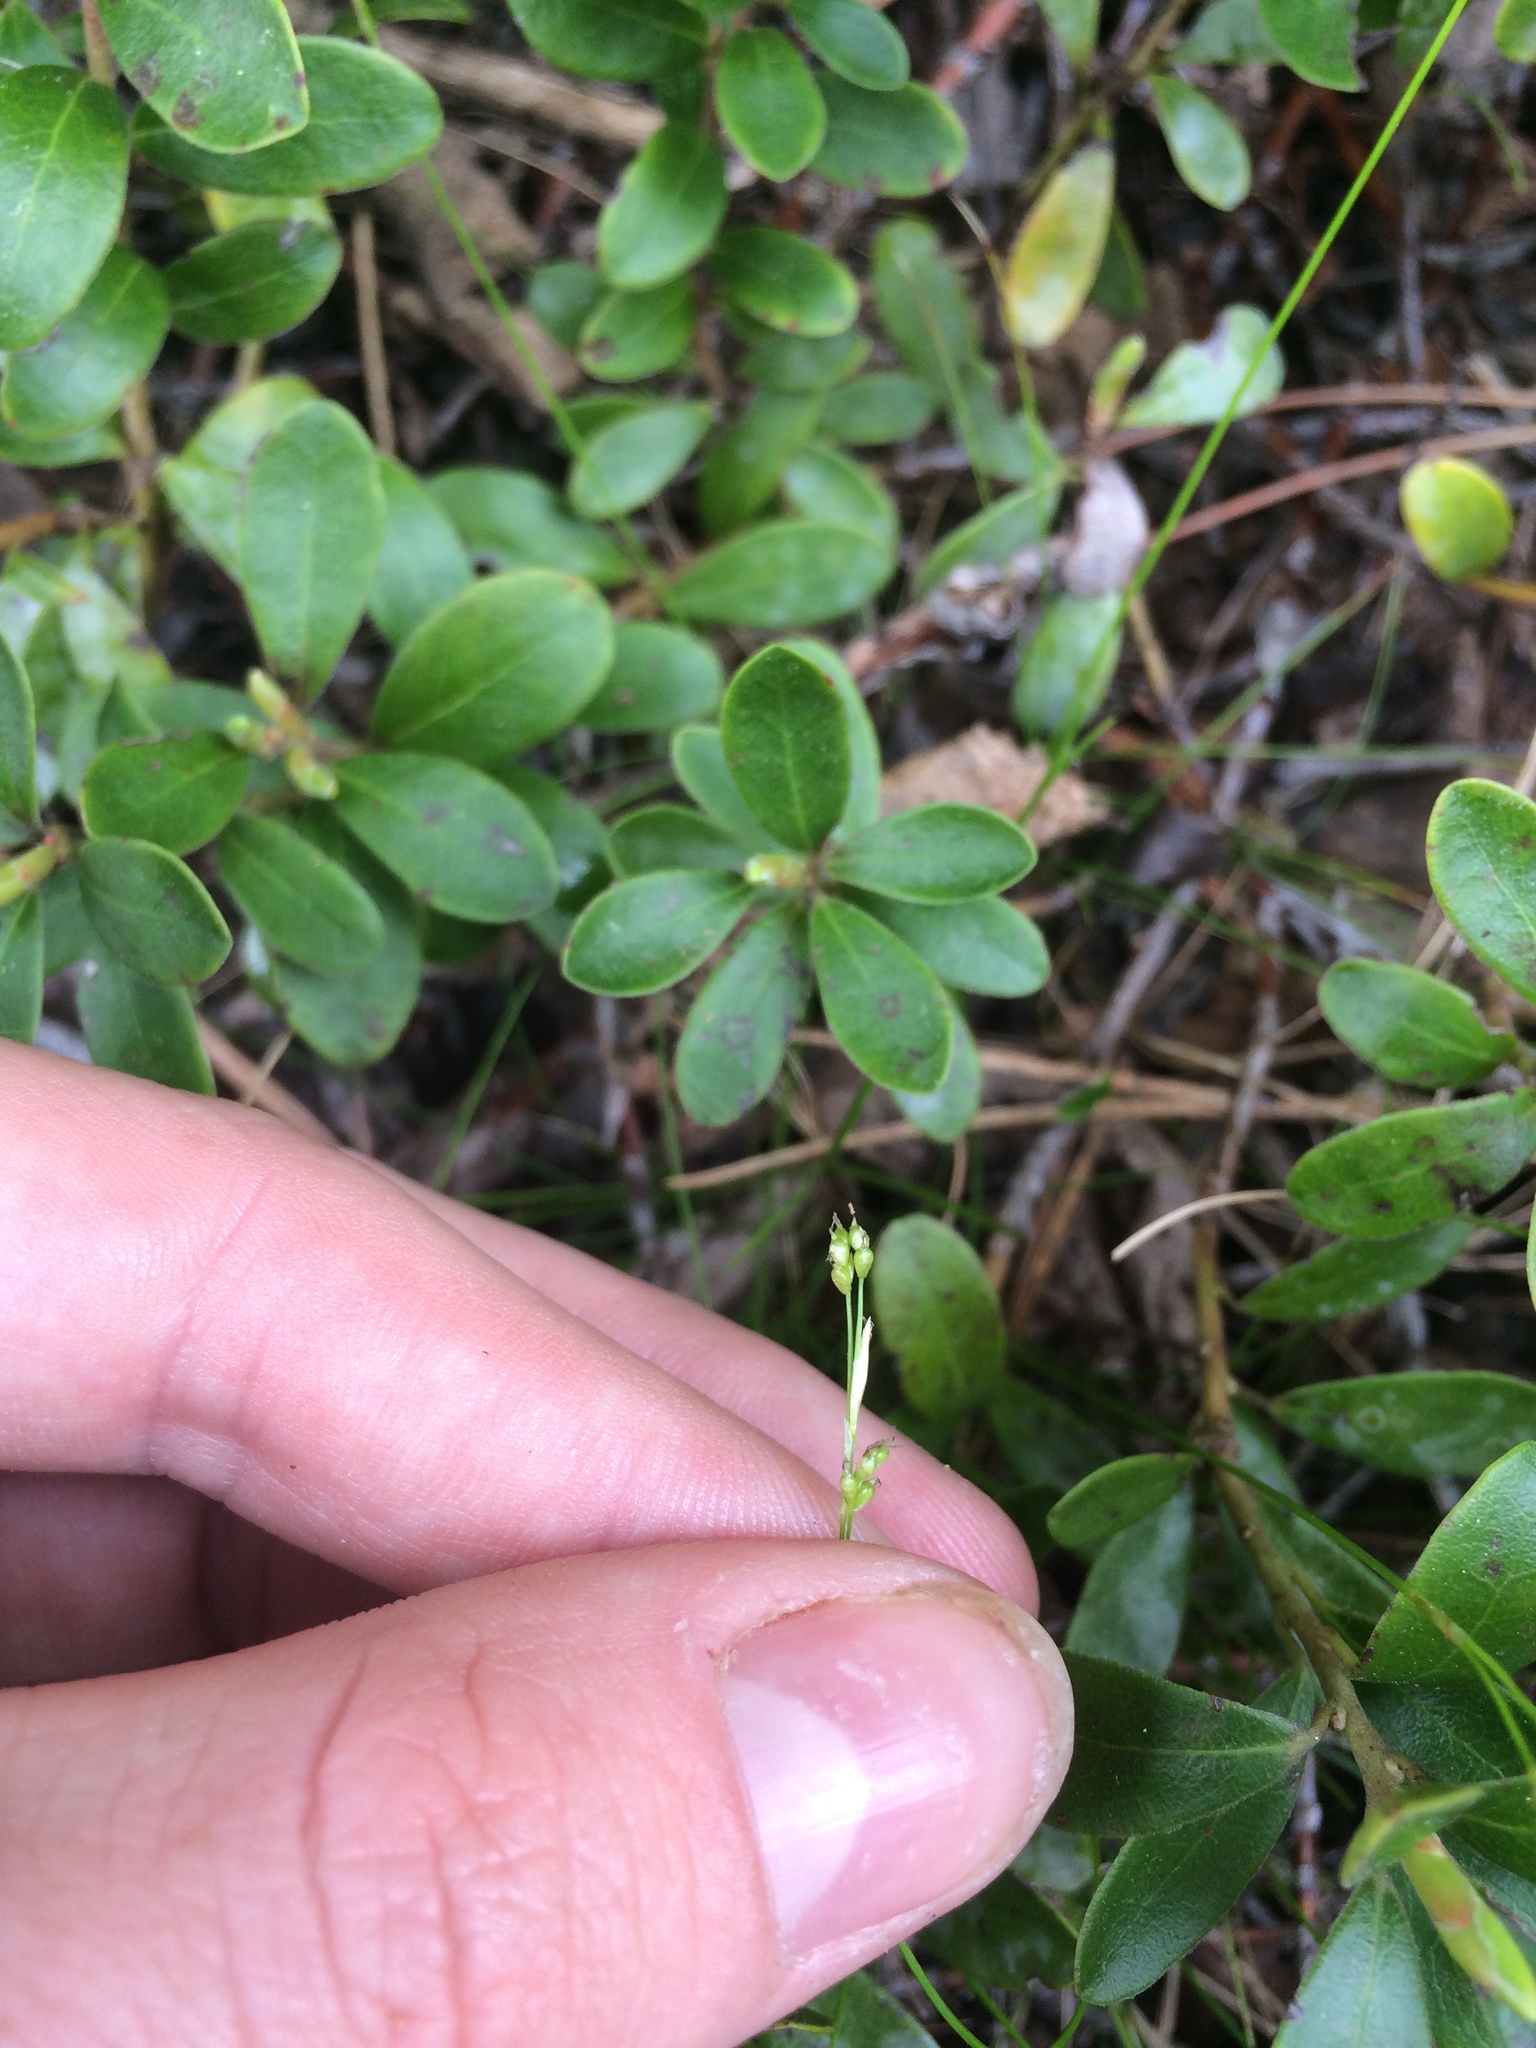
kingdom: Plantae
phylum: Tracheophyta
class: Liliopsida
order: Poales
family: Cyperaceae
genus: Carex
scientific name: Carex eburnea
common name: Bristle-leaved sedge
